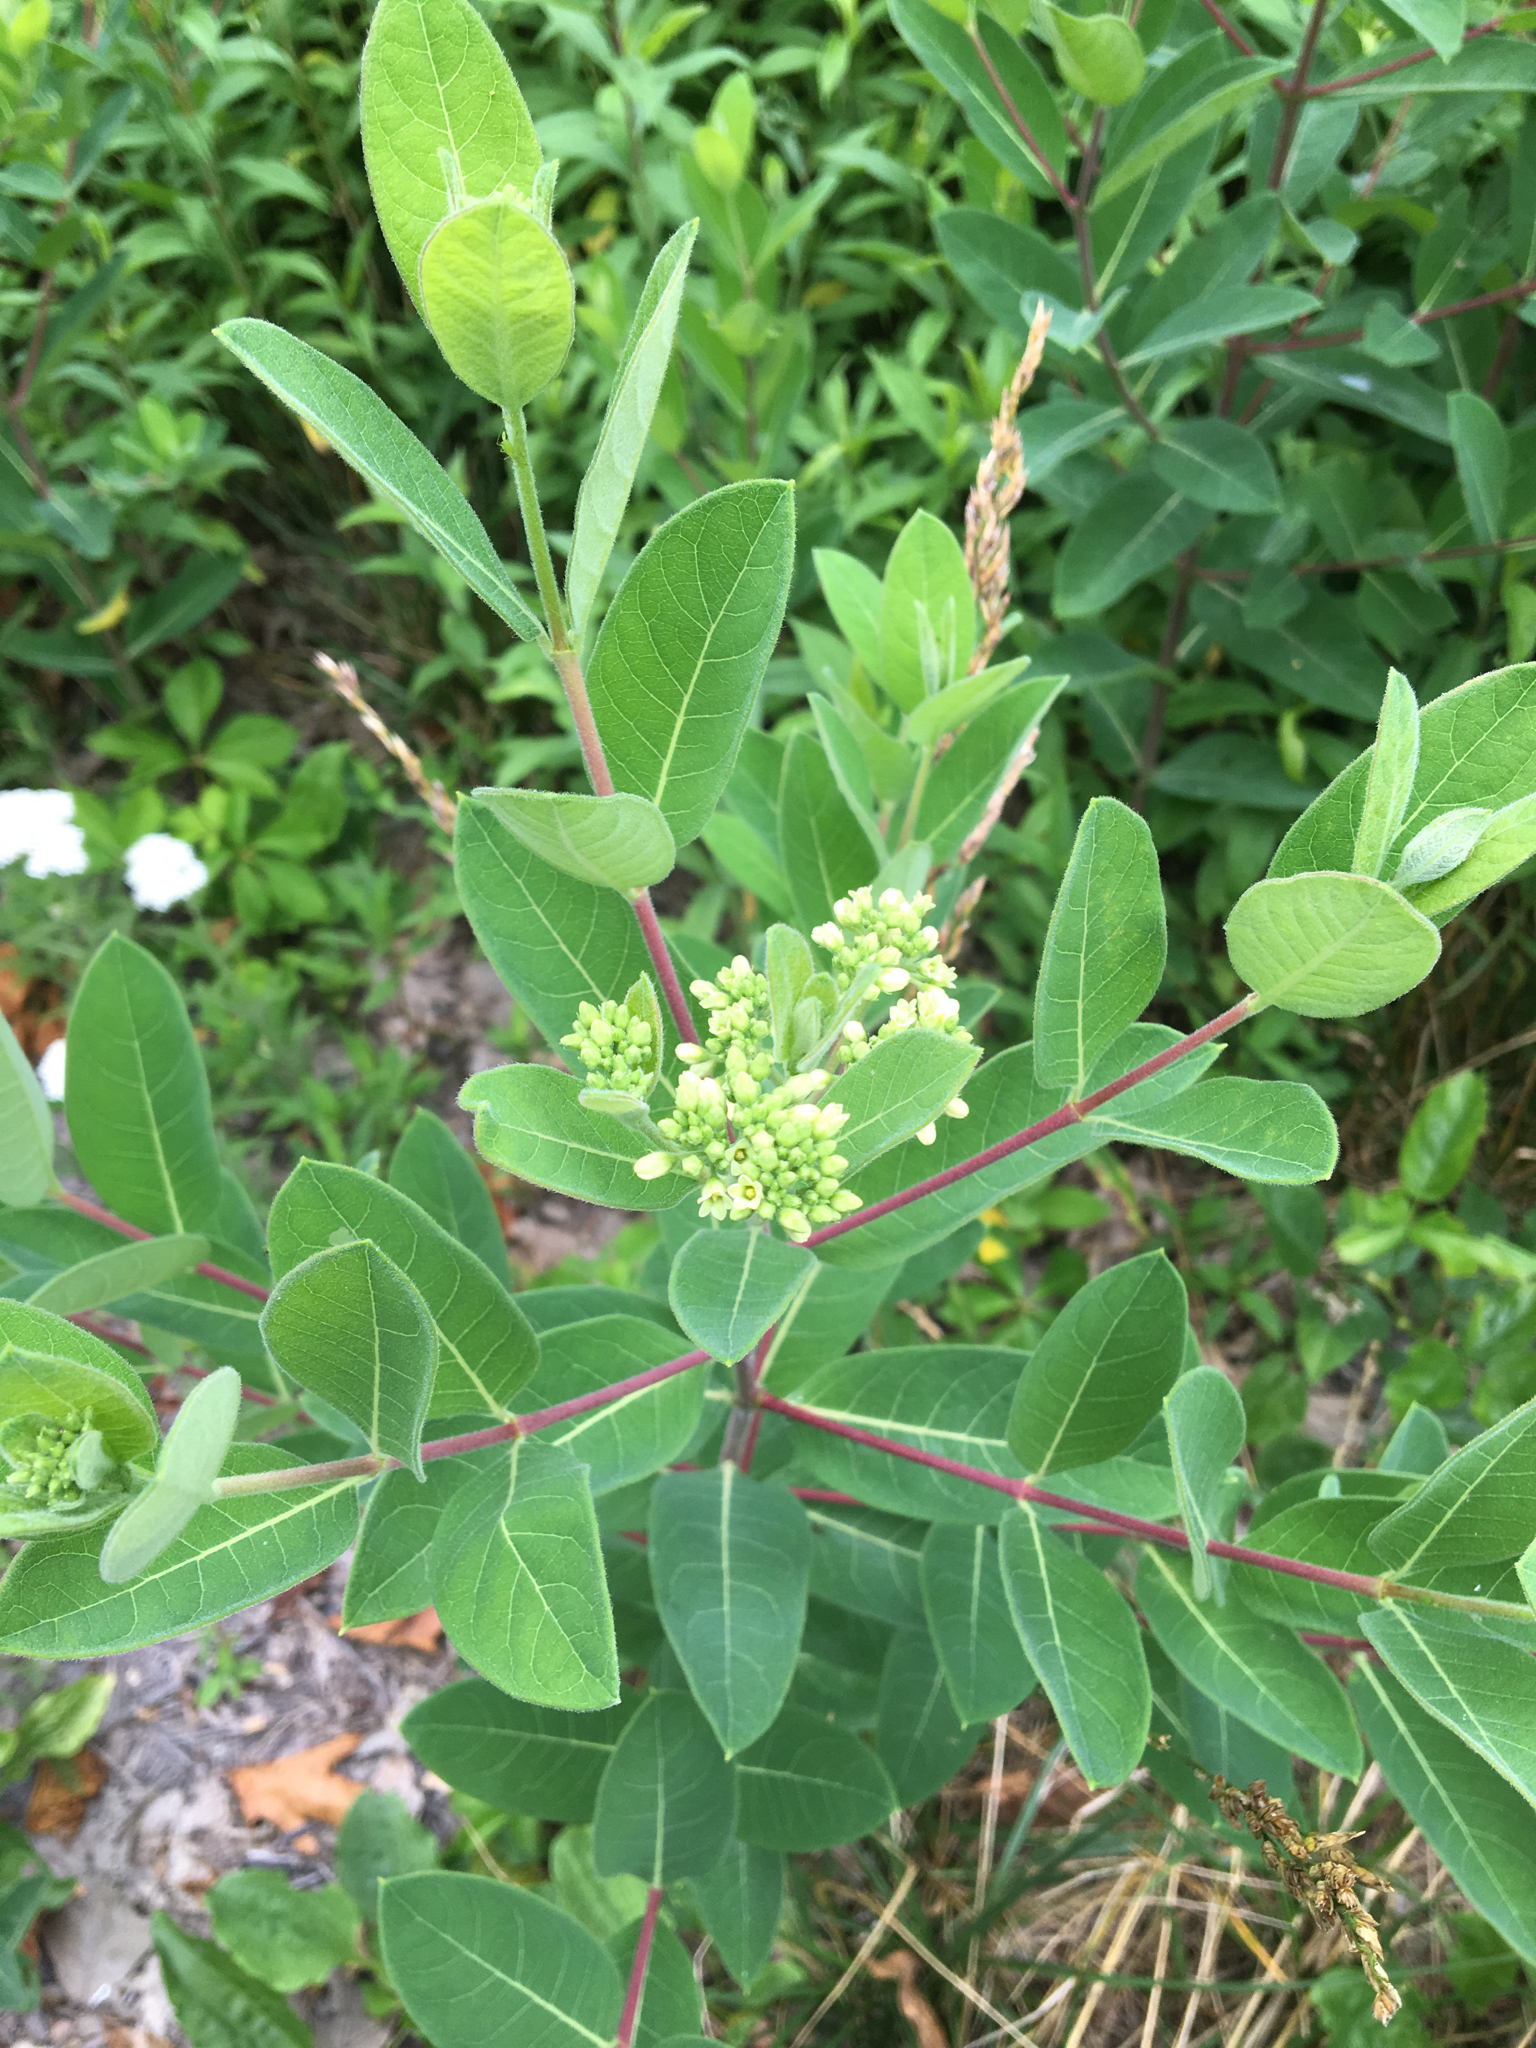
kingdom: Plantae
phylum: Tracheophyta
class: Magnoliopsida
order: Gentianales
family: Apocynaceae
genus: Apocynum
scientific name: Apocynum cannabinum
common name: Hemp dogbane
